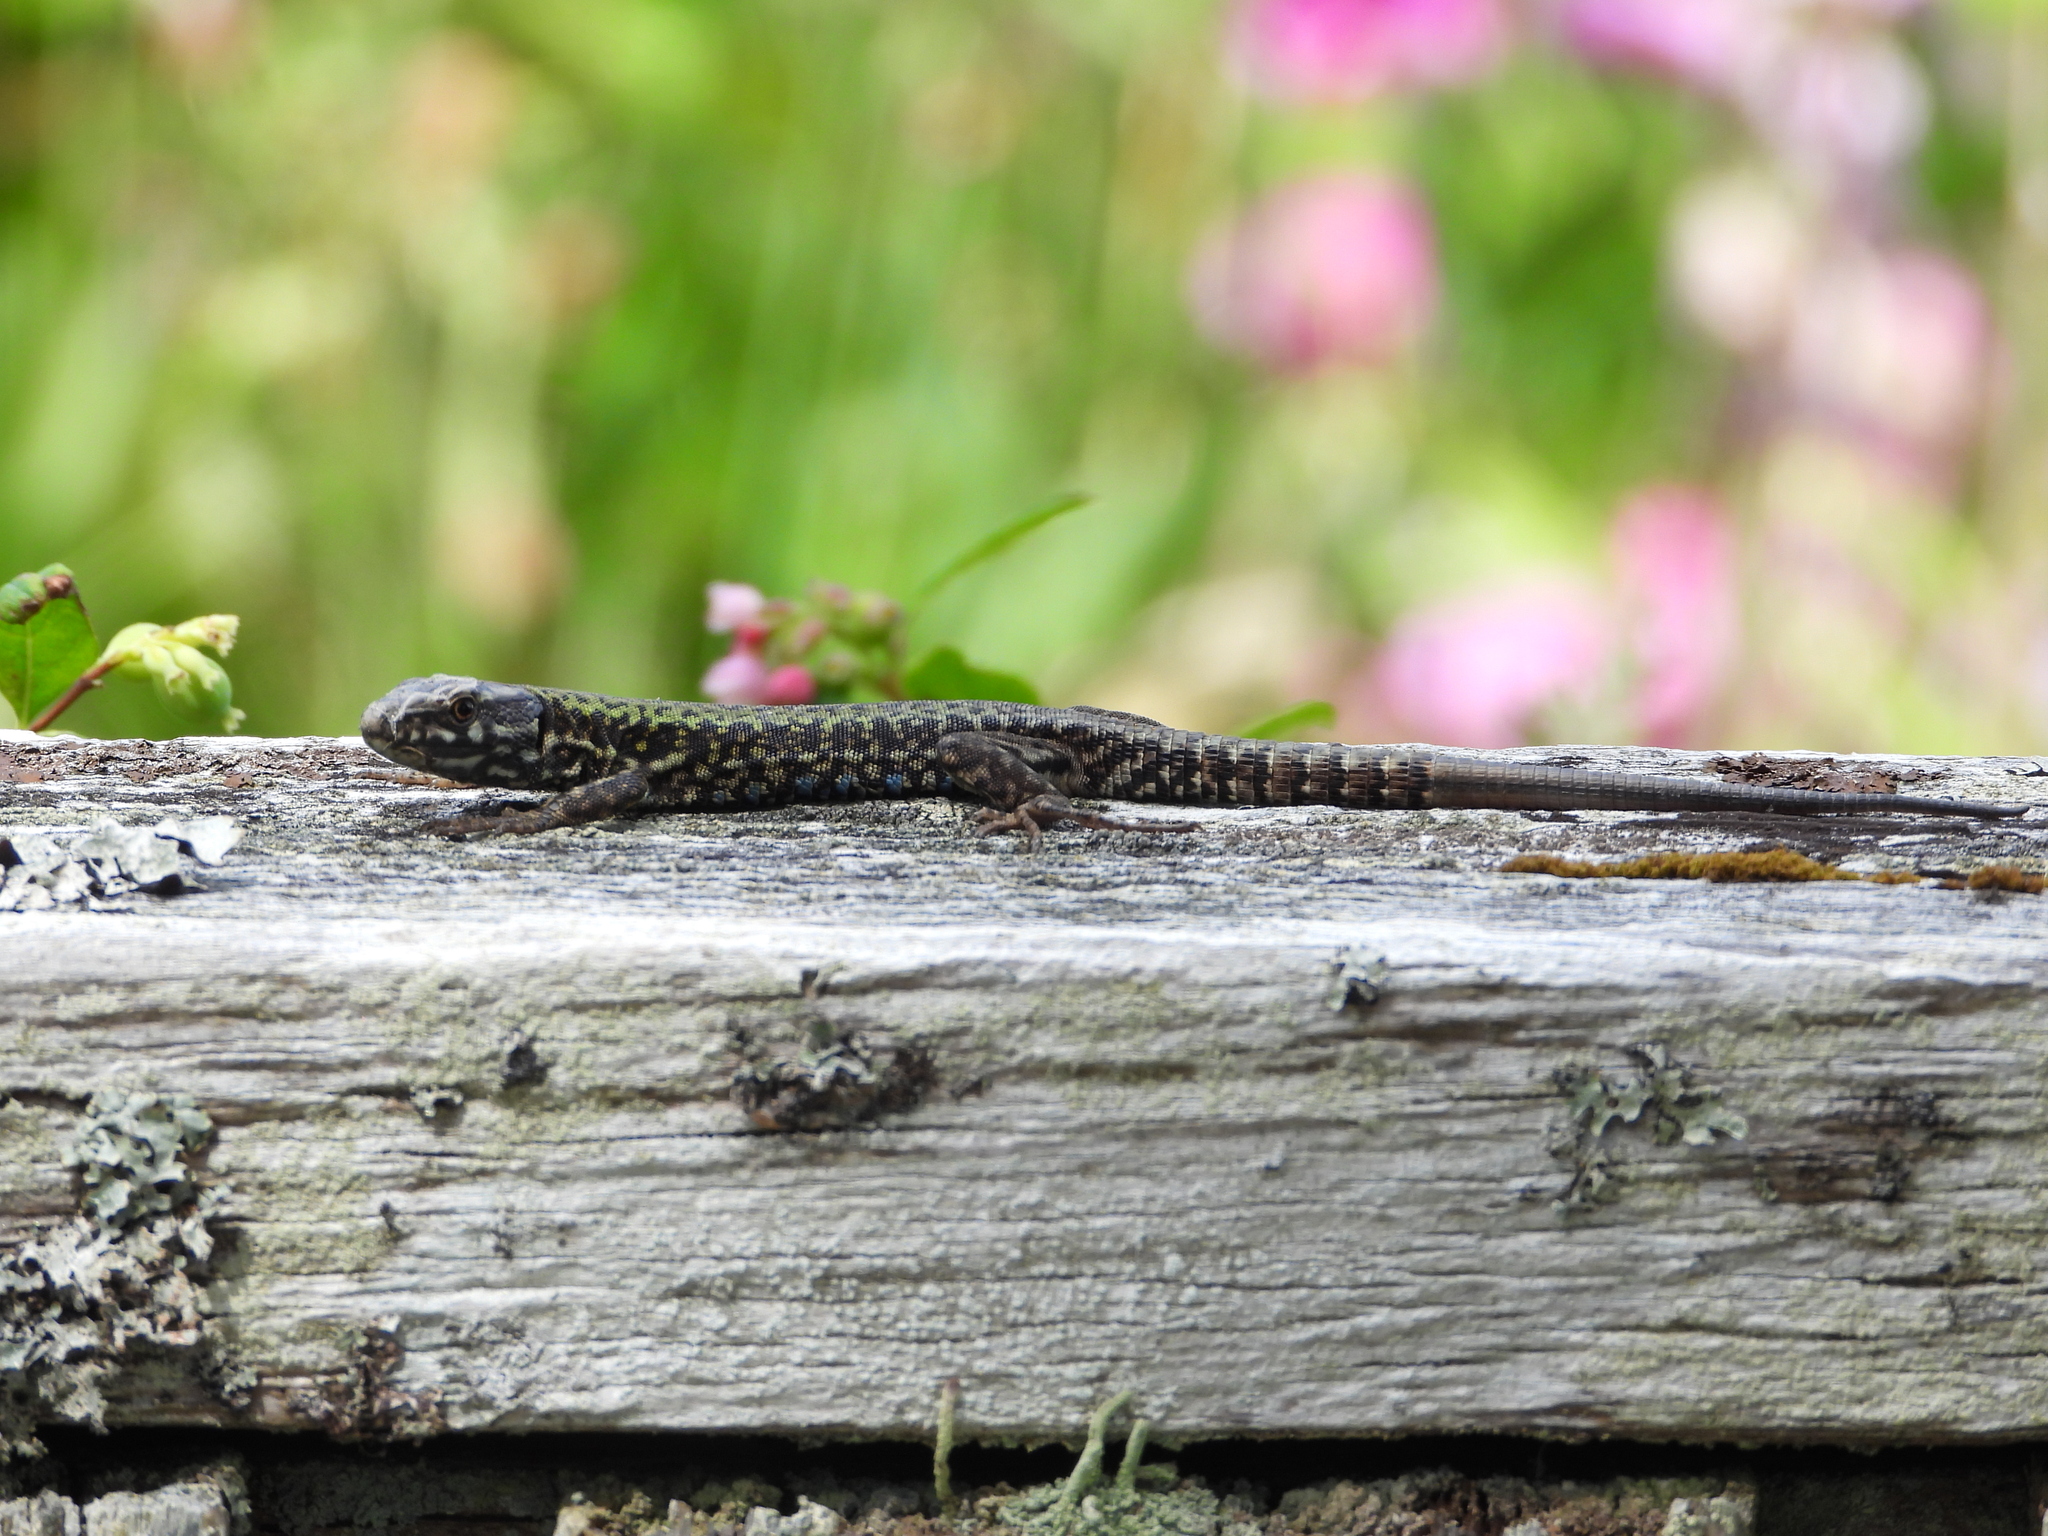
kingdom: Animalia
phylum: Chordata
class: Squamata
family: Lacertidae
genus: Podarcis
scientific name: Podarcis muralis
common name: Common wall lizard
